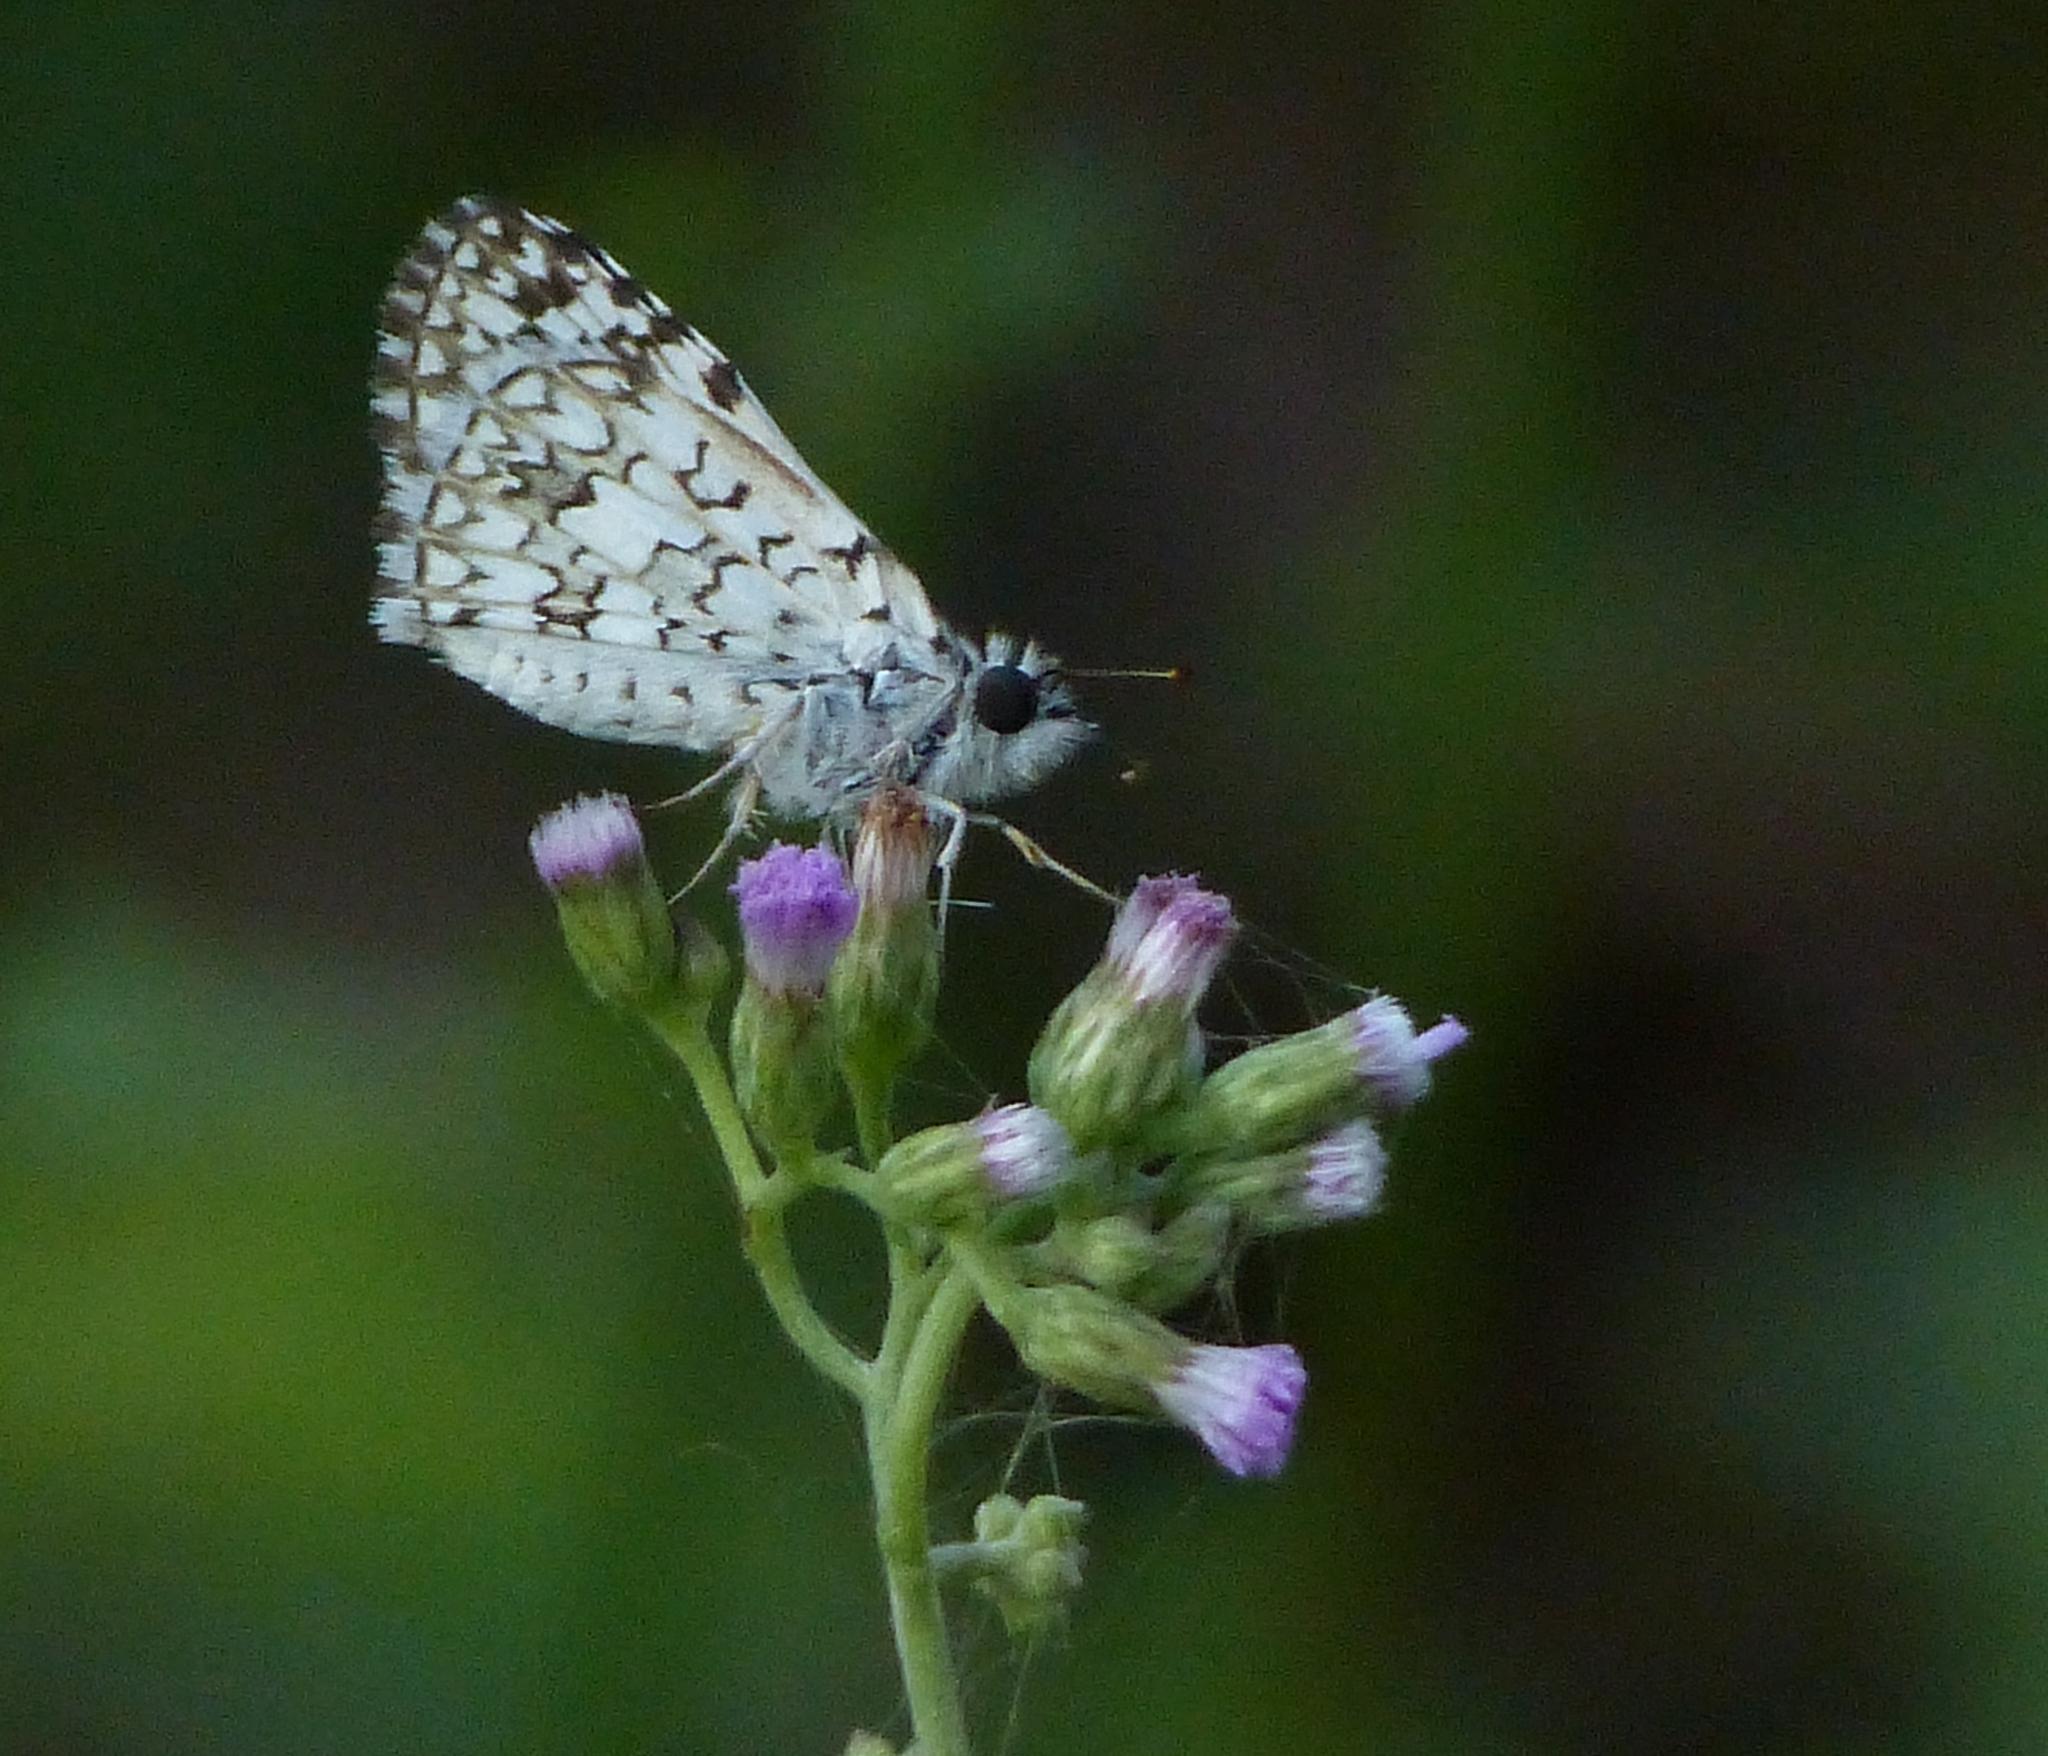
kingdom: Animalia
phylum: Arthropoda
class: Insecta
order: Lepidoptera
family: Hesperiidae
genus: Pyrgus
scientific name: Pyrgus oileus
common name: Tropical checkered-skipper
